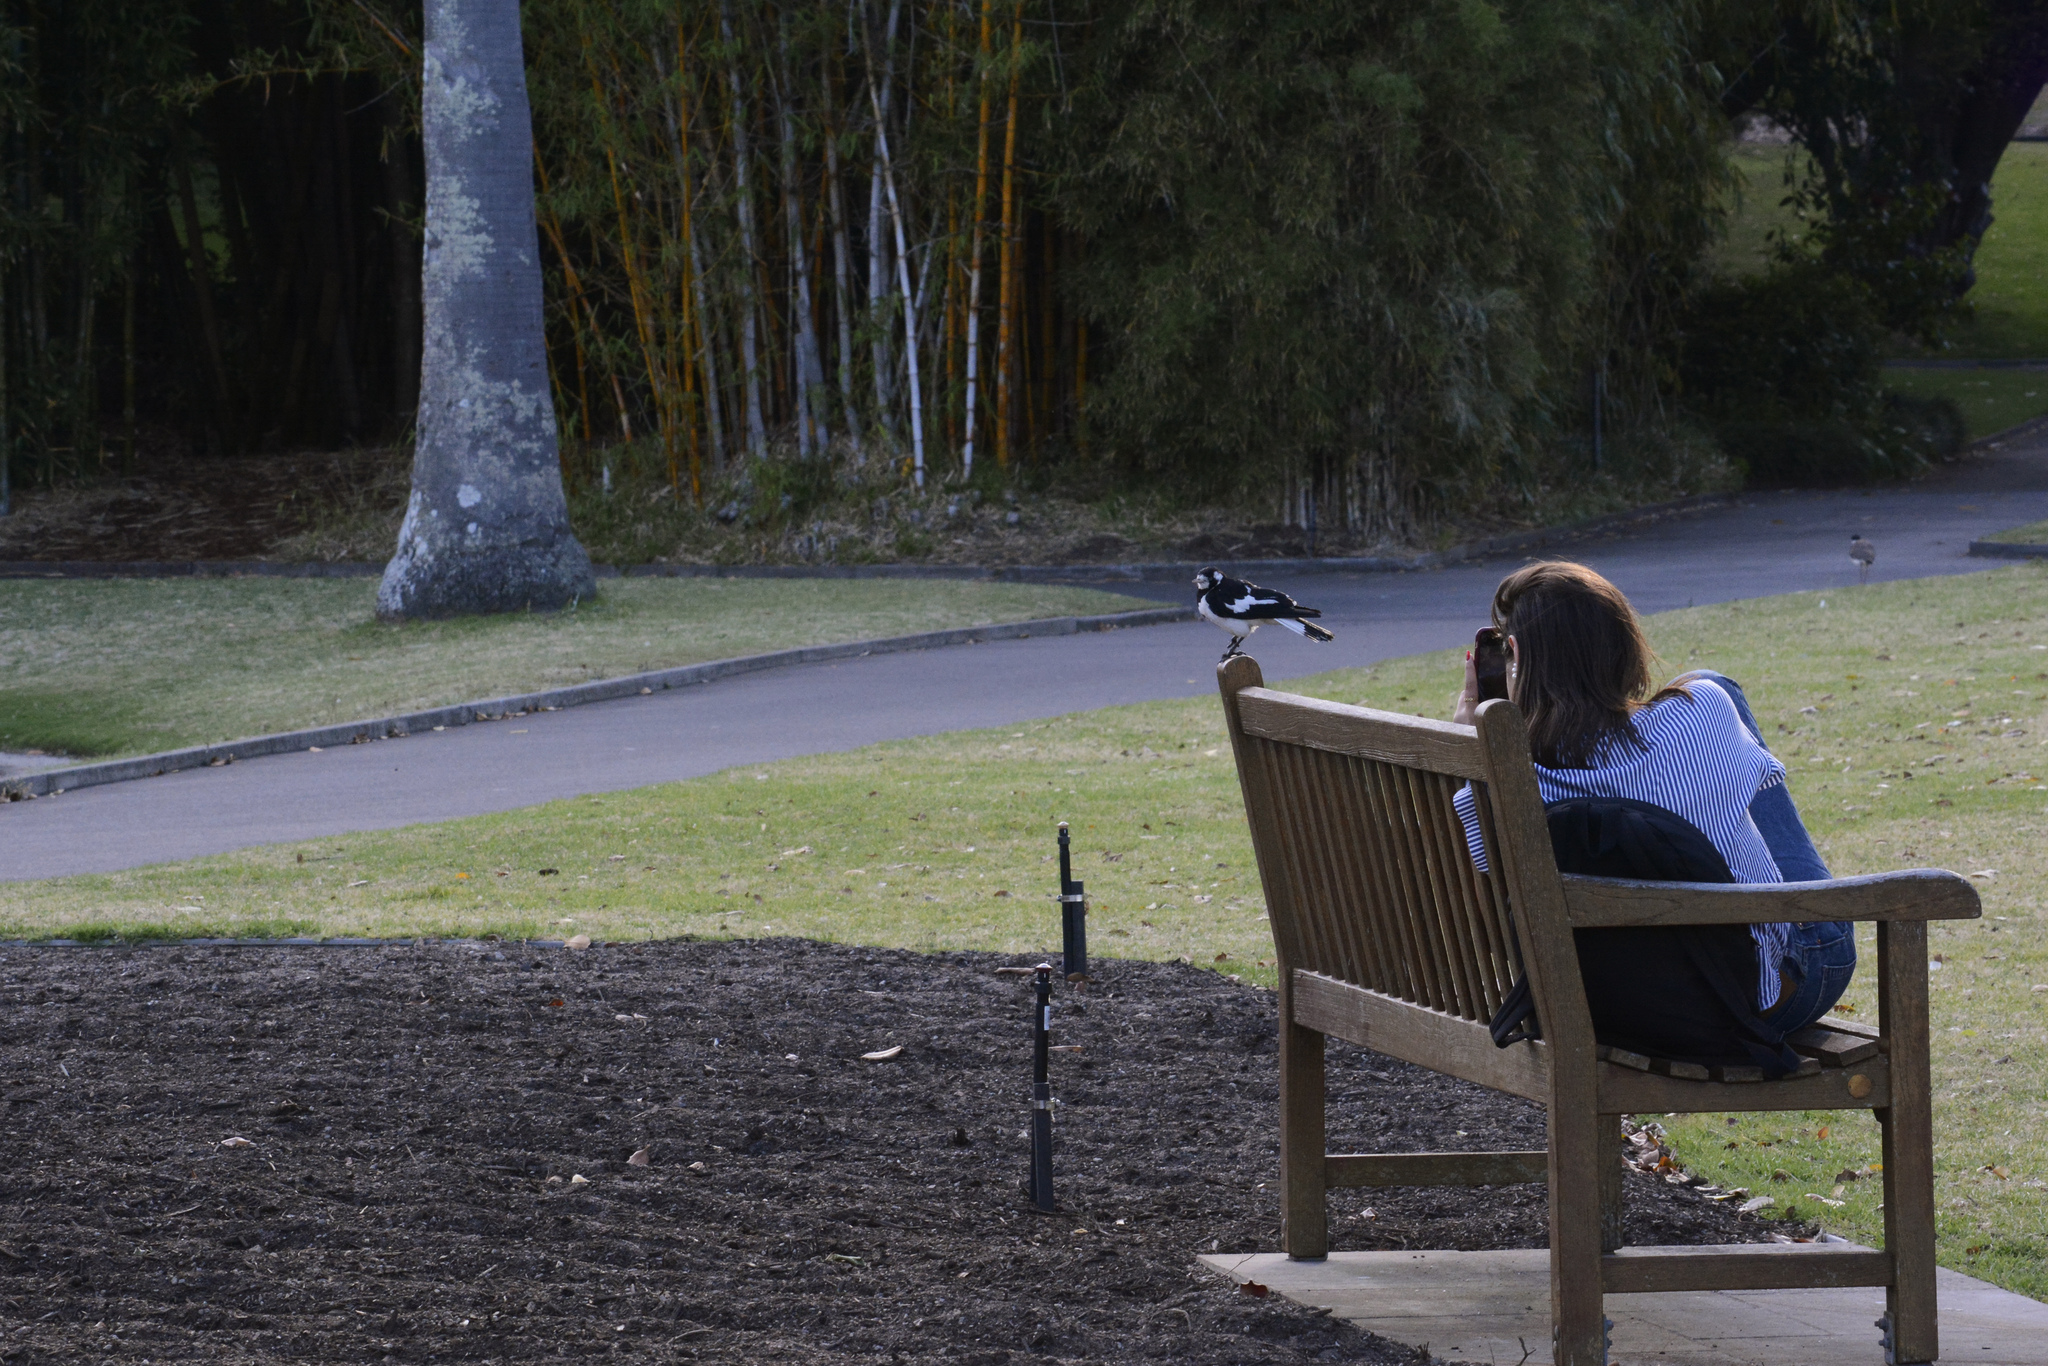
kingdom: Animalia
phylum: Chordata
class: Aves
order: Passeriformes
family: Monarchidae
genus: Grallina
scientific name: Grallina cyanoleuca
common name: Magpie-lark
